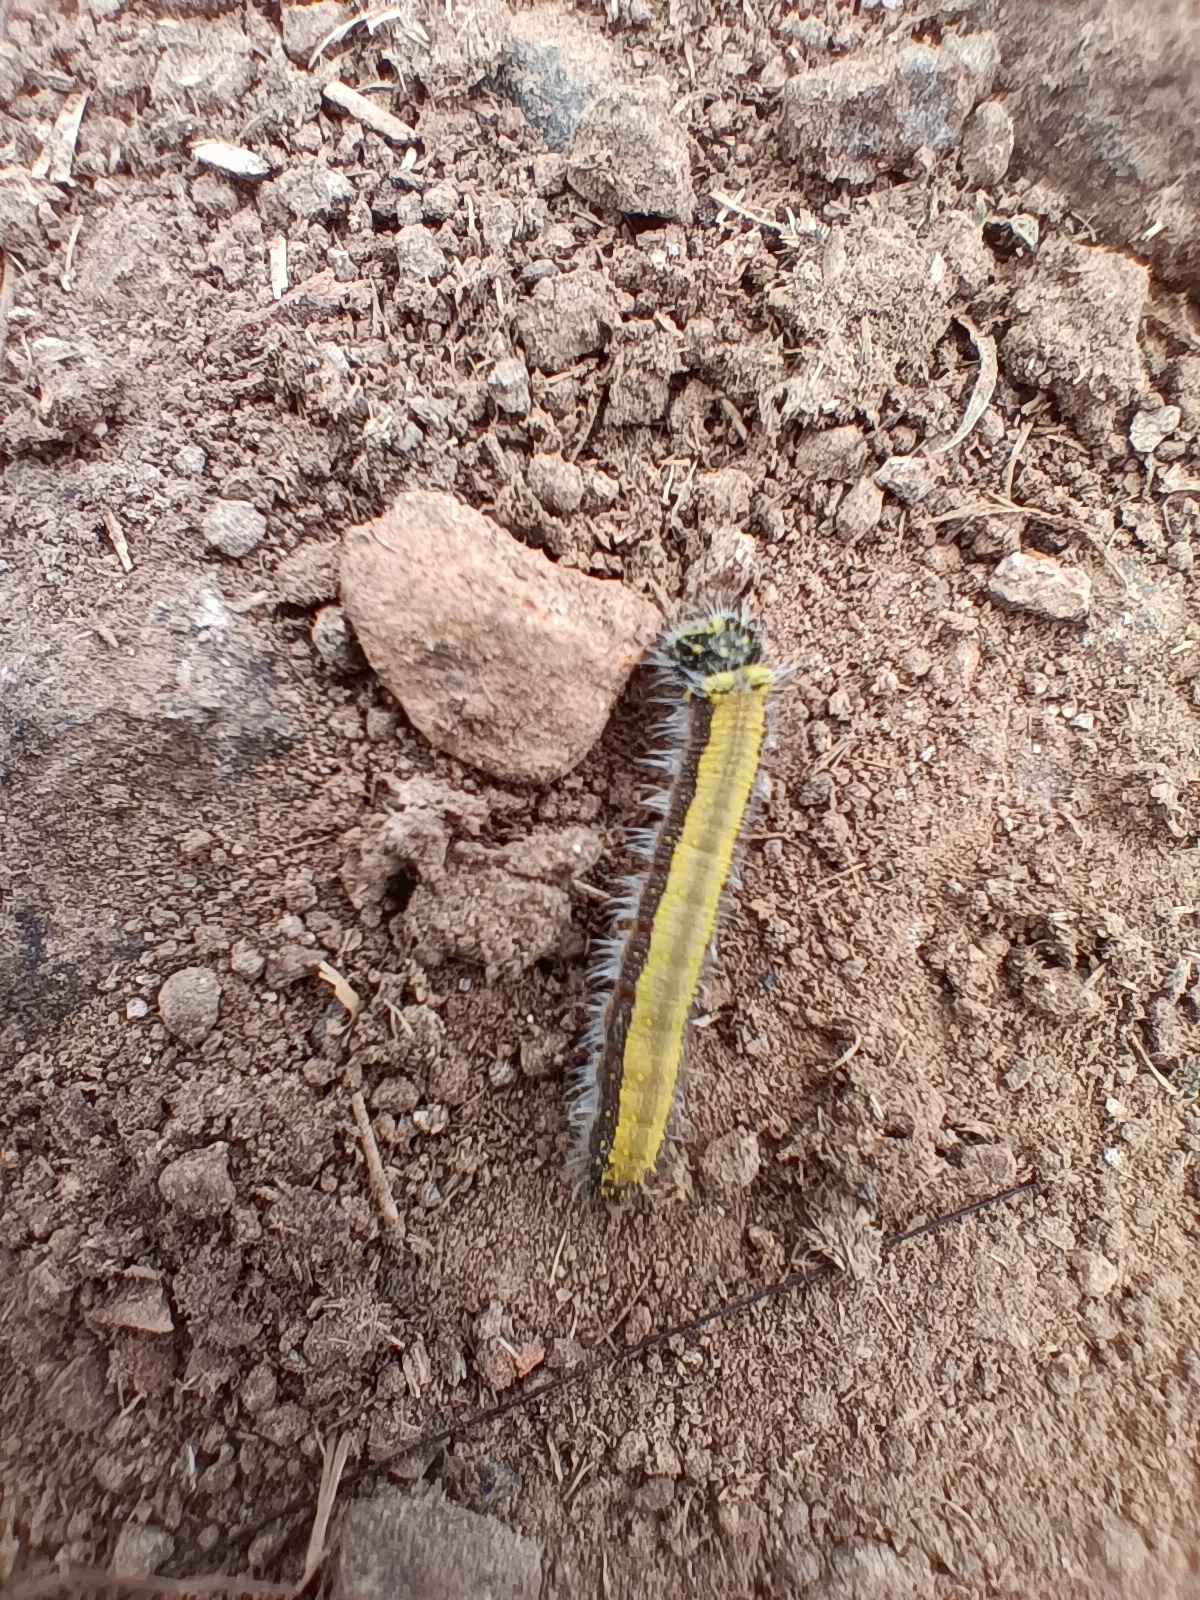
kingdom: Animalia
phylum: Arthropoda
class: Insecta
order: Lepidoptera
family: Pieridae
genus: Belenois
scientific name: Belenois aurota
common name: Brown-veined white
